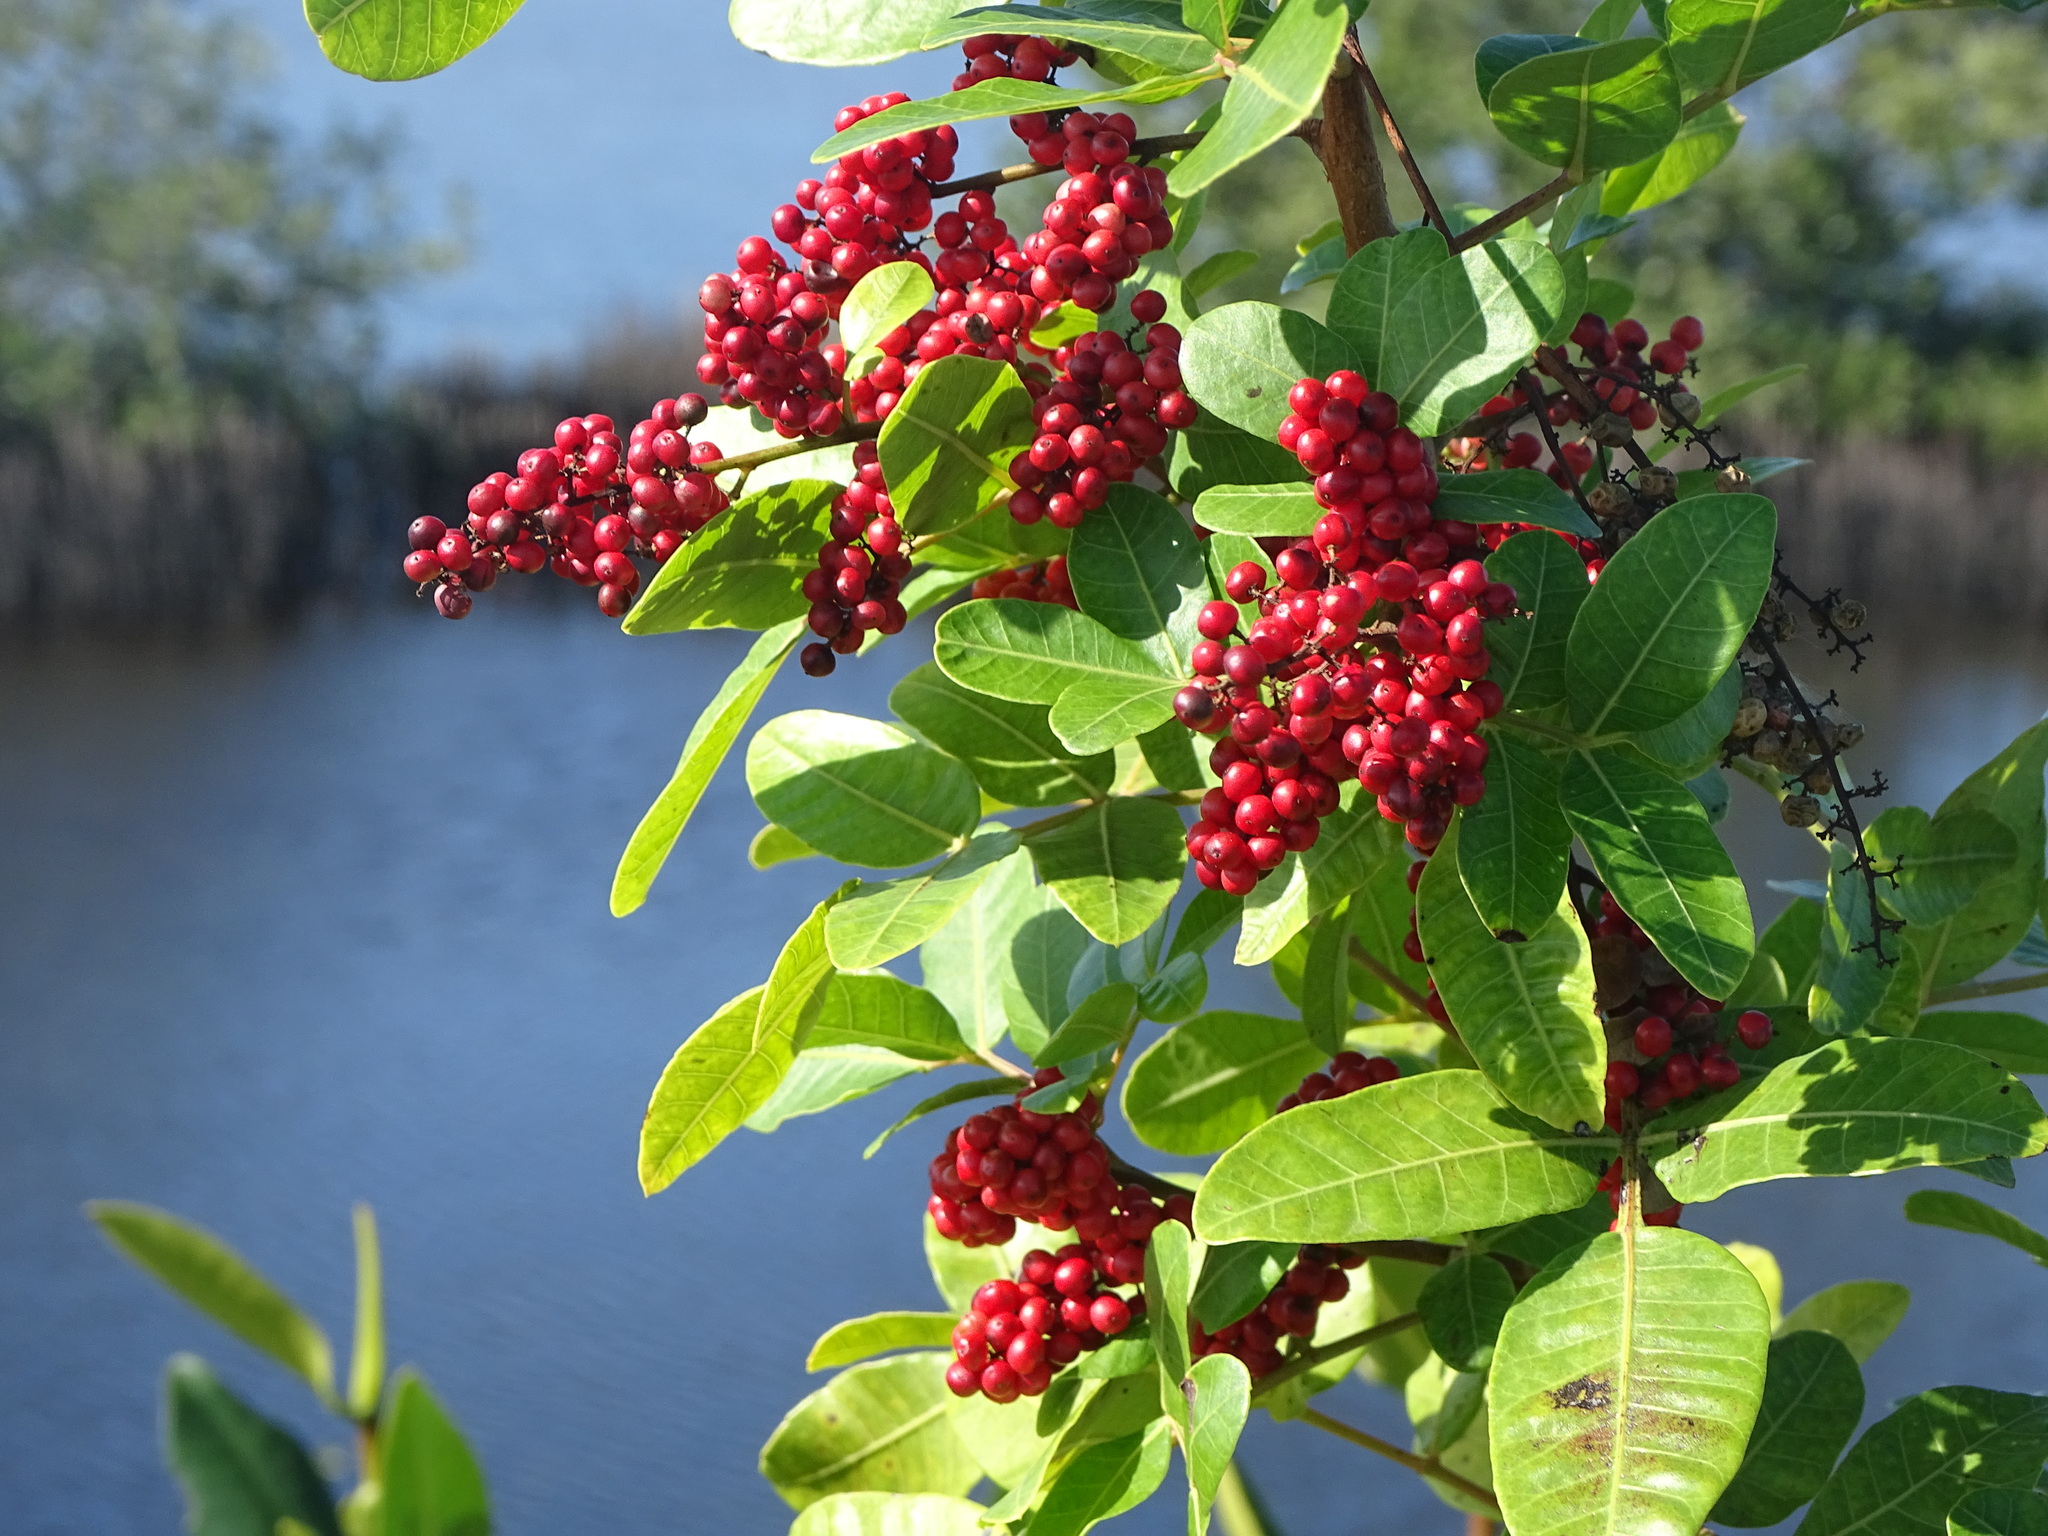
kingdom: Plantae
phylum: Tracheophyta
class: Magnoliopsida
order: Sapindales
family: Anacardiaceae
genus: Schinus
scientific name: Schinus terebinthifolia
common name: Brazilian peppertree
